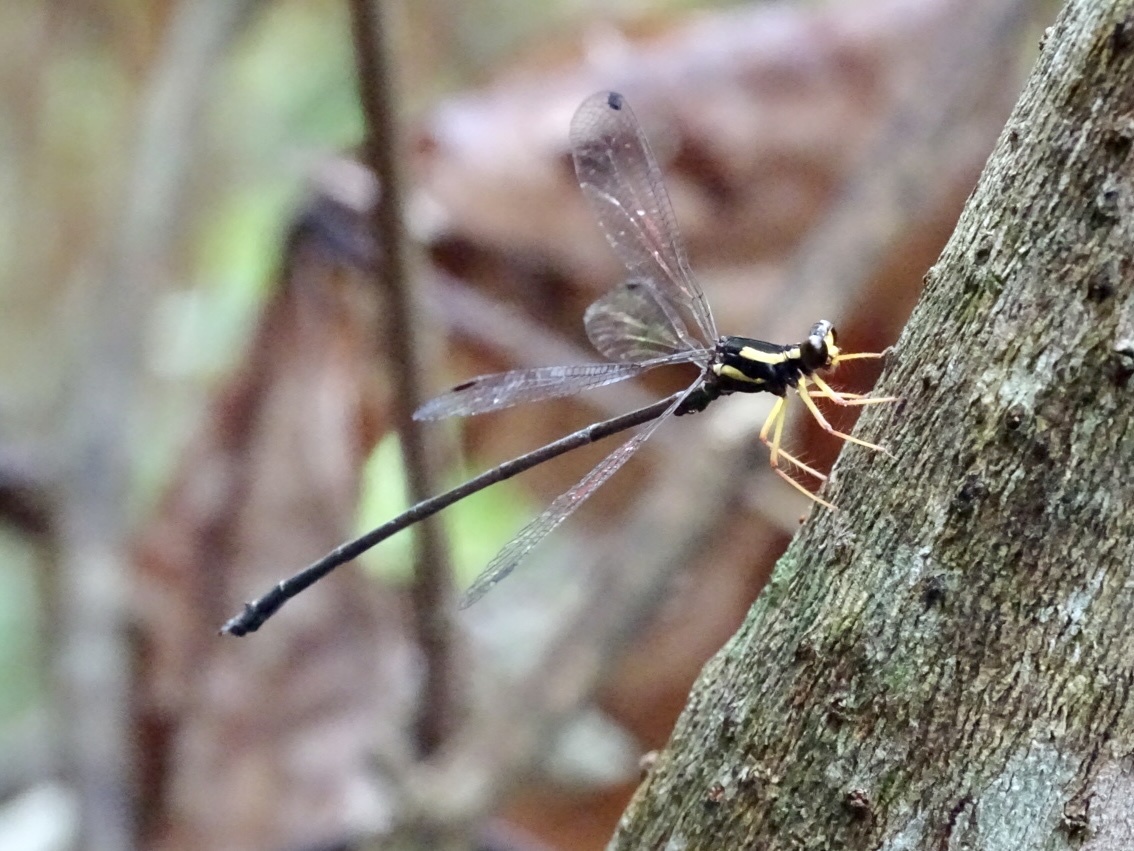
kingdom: Animalia
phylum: Arthropoda
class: Insecta
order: Odonata
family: Megapodagrionidae
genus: Rhipidolestes
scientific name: Rhipidolestes janetae
